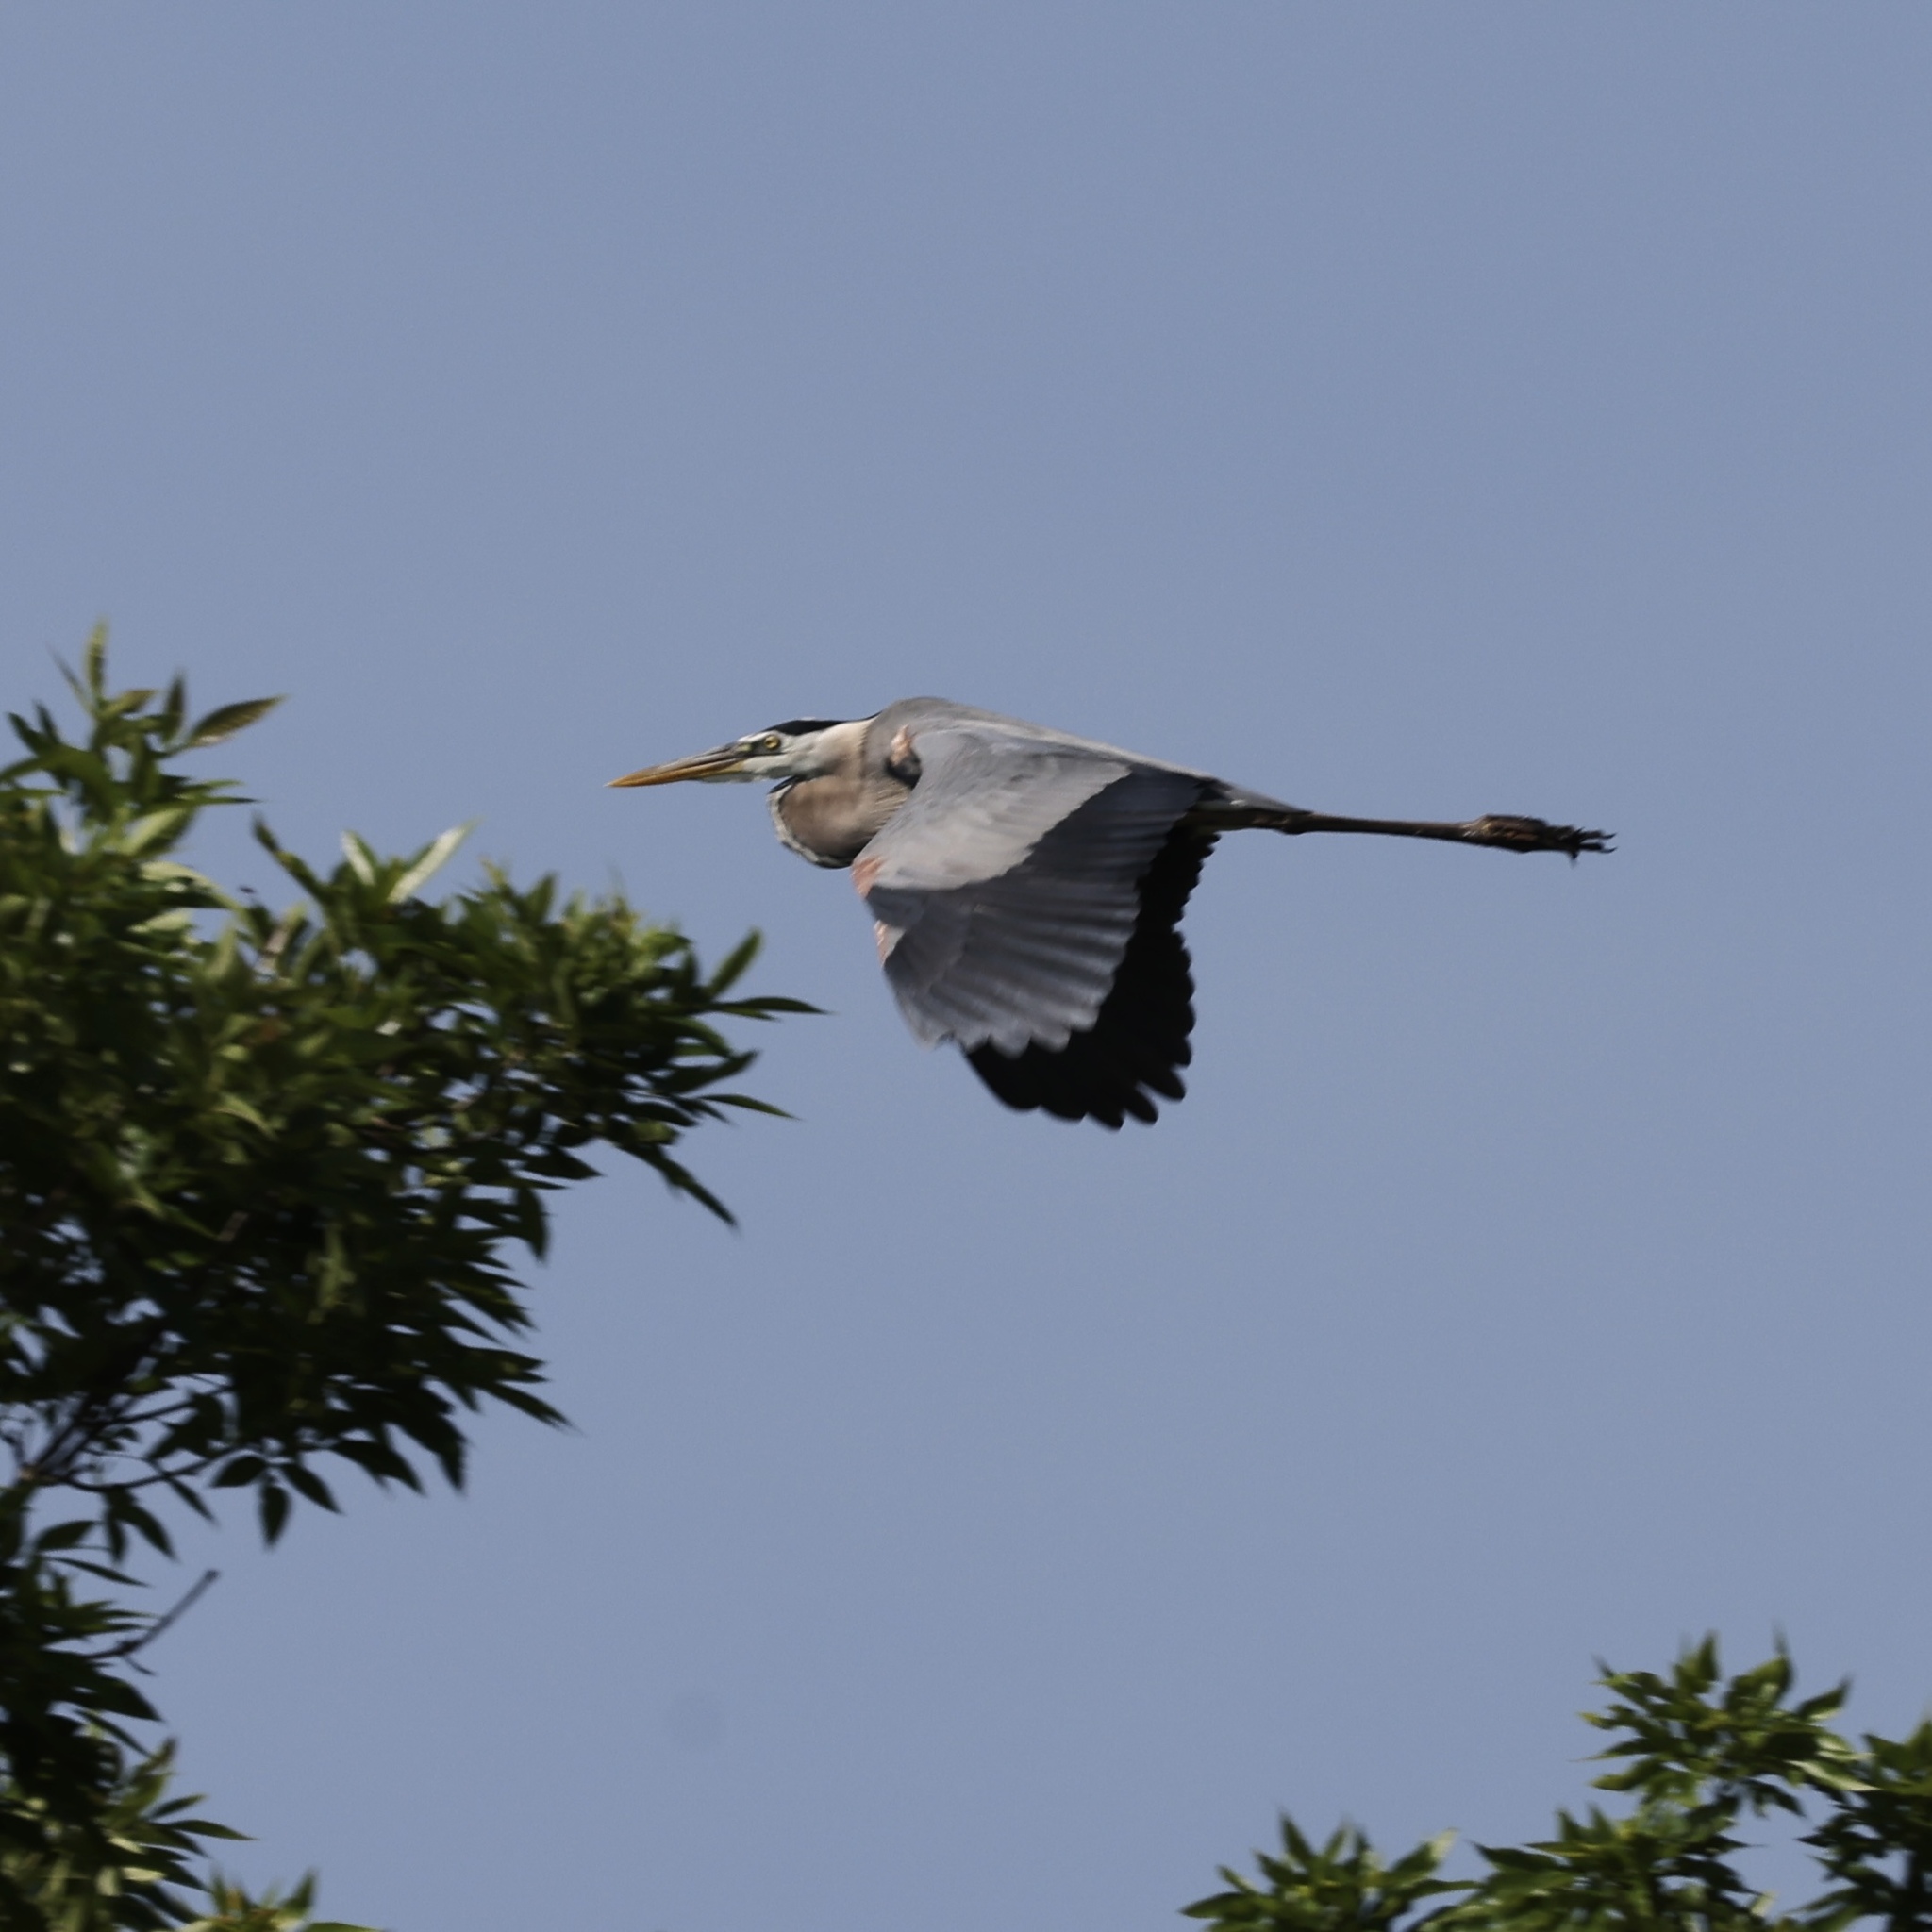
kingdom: Animalia
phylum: Chordata
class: Aves
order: Pelecaniformes
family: Ardeidae
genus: Ardea
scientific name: Ardea herodias
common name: Great blue heron
